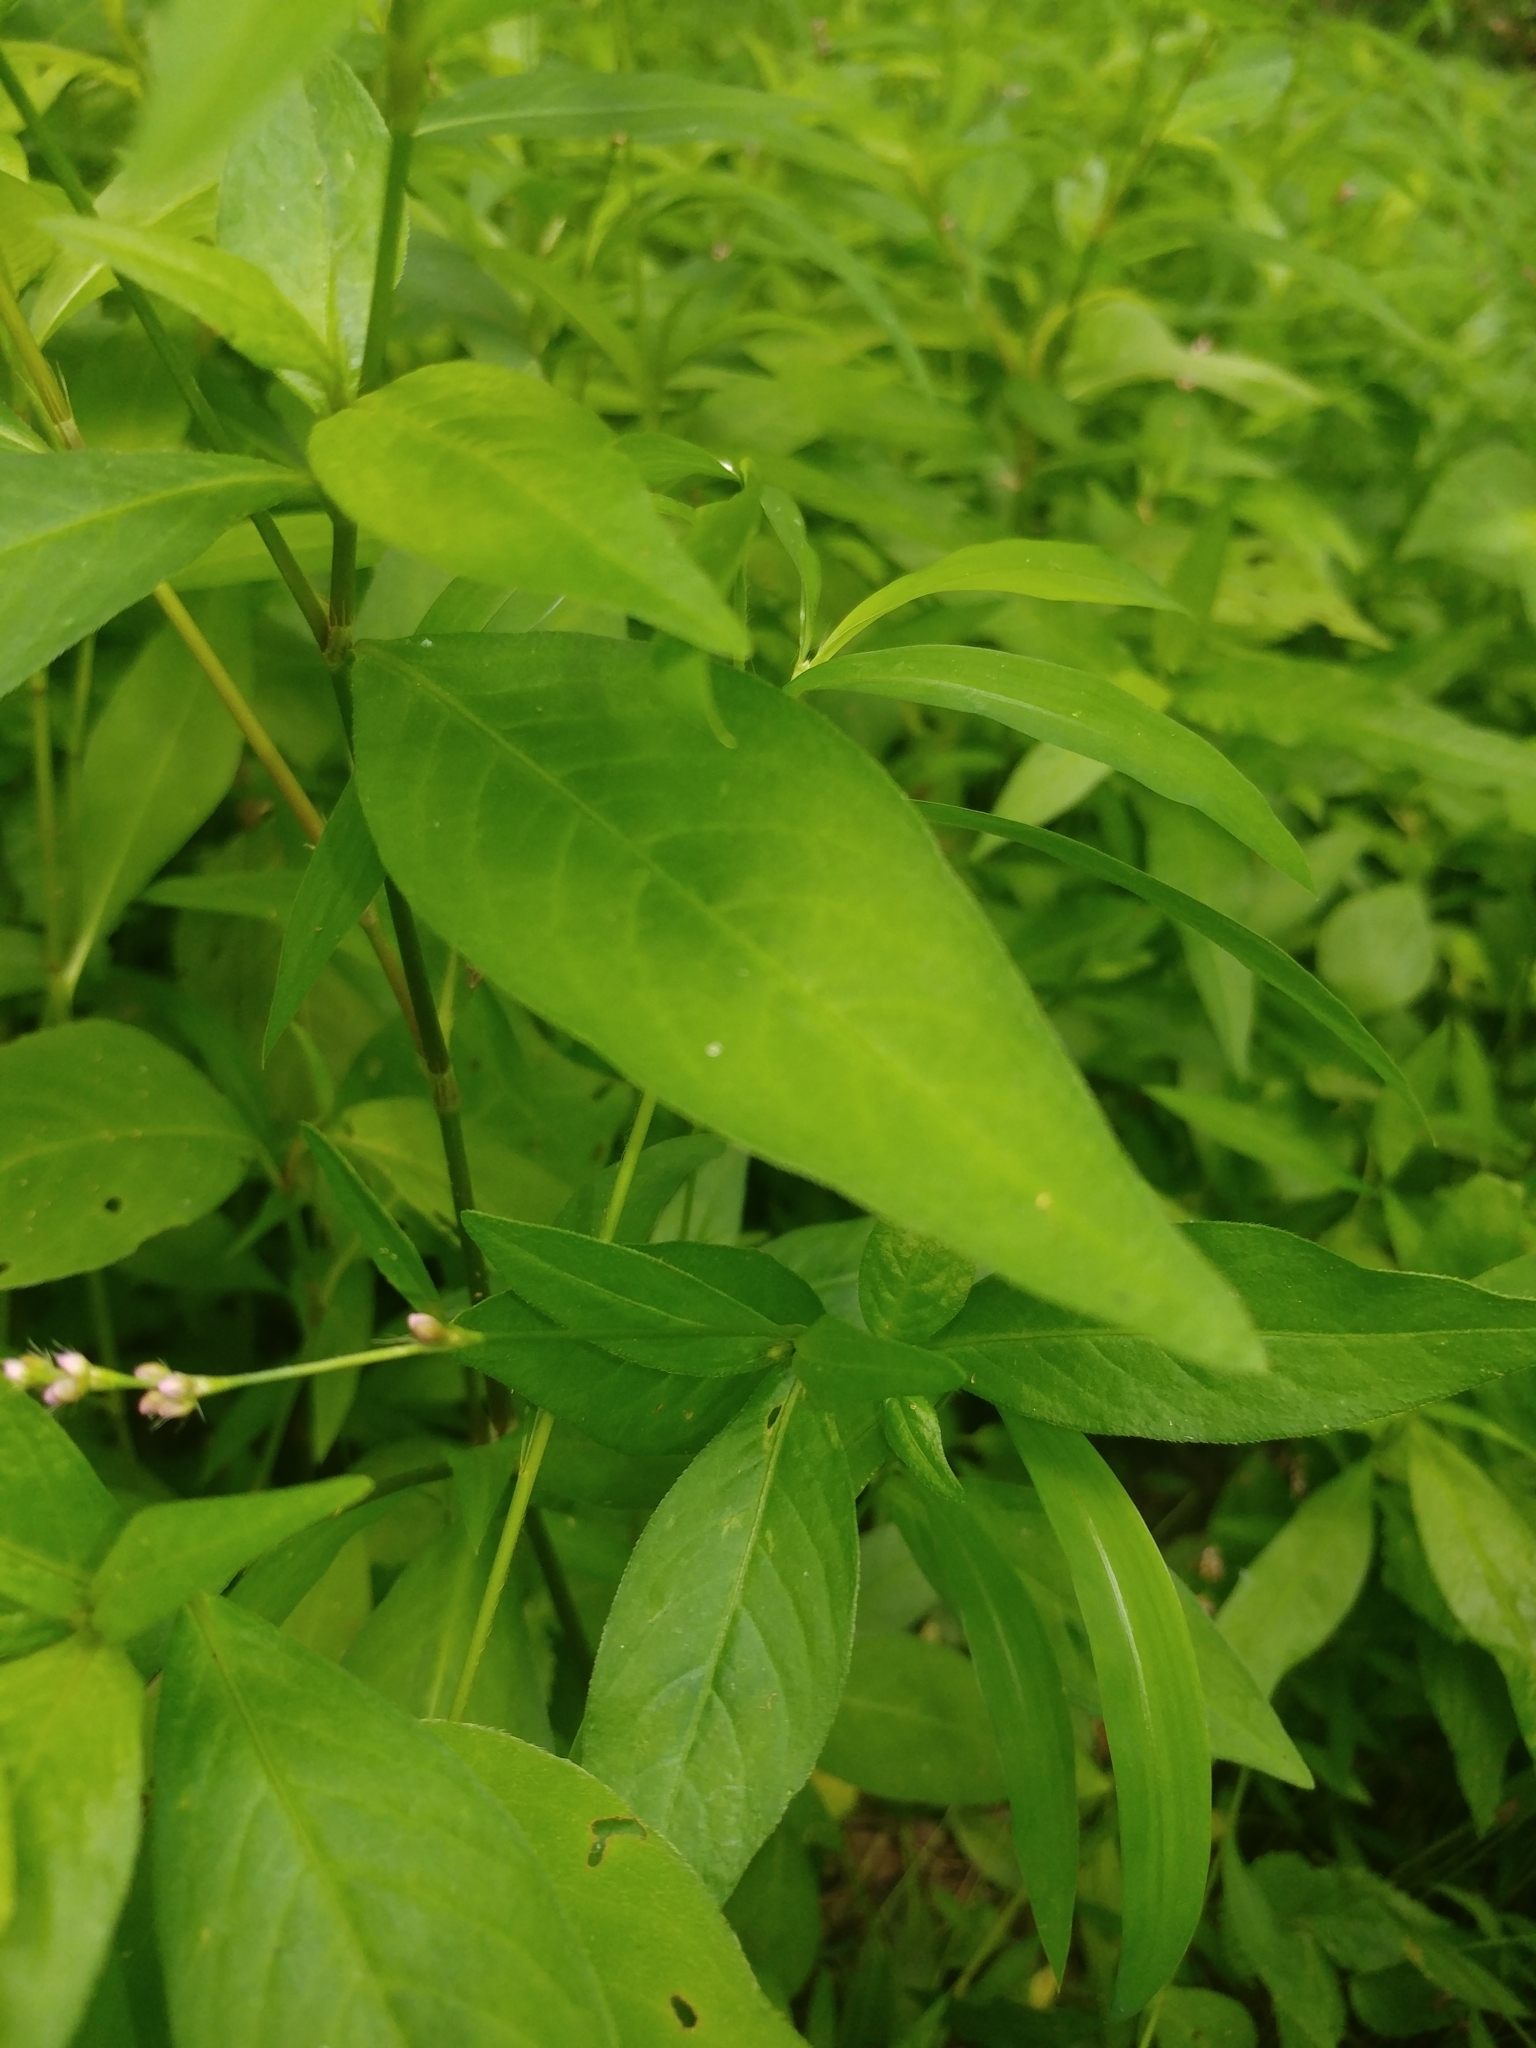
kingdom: Plantae
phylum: Tracheophyta
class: Magnoliopsida
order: Caryophyllales
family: Polygonaceae
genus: Persicaria
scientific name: Persicaria longiseta
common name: Bristly lady's-thumb
